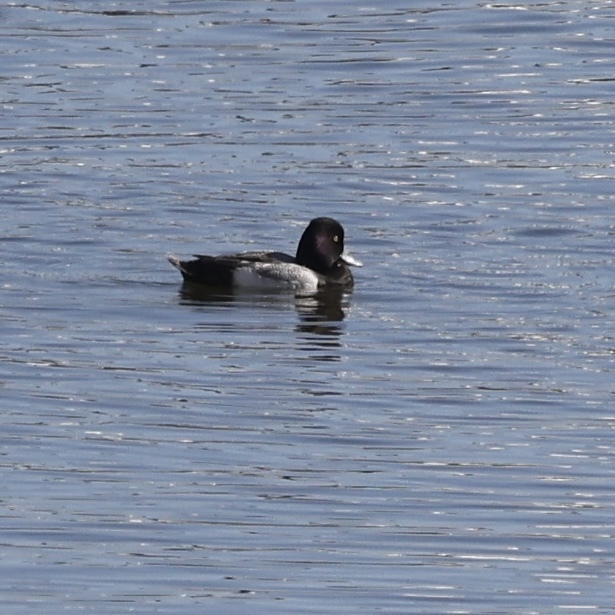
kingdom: Animalia
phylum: Chordata
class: Aves
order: Anseriformes
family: Anatidae
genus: Aythya
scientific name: Aythya affinis
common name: Lesser scaup
